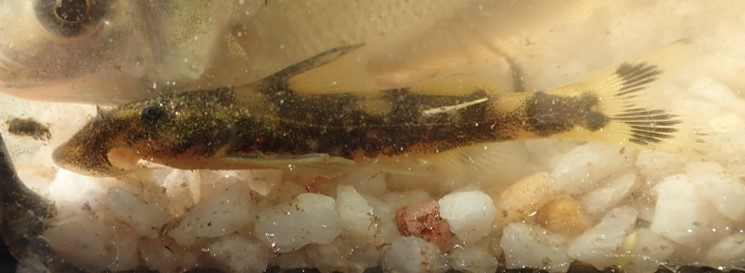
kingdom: Animalia
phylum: Chordata
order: Siluriformes
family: Mochokidae
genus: Chiloglanis
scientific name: Chiloglanis paratus
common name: Sawfin catlet
